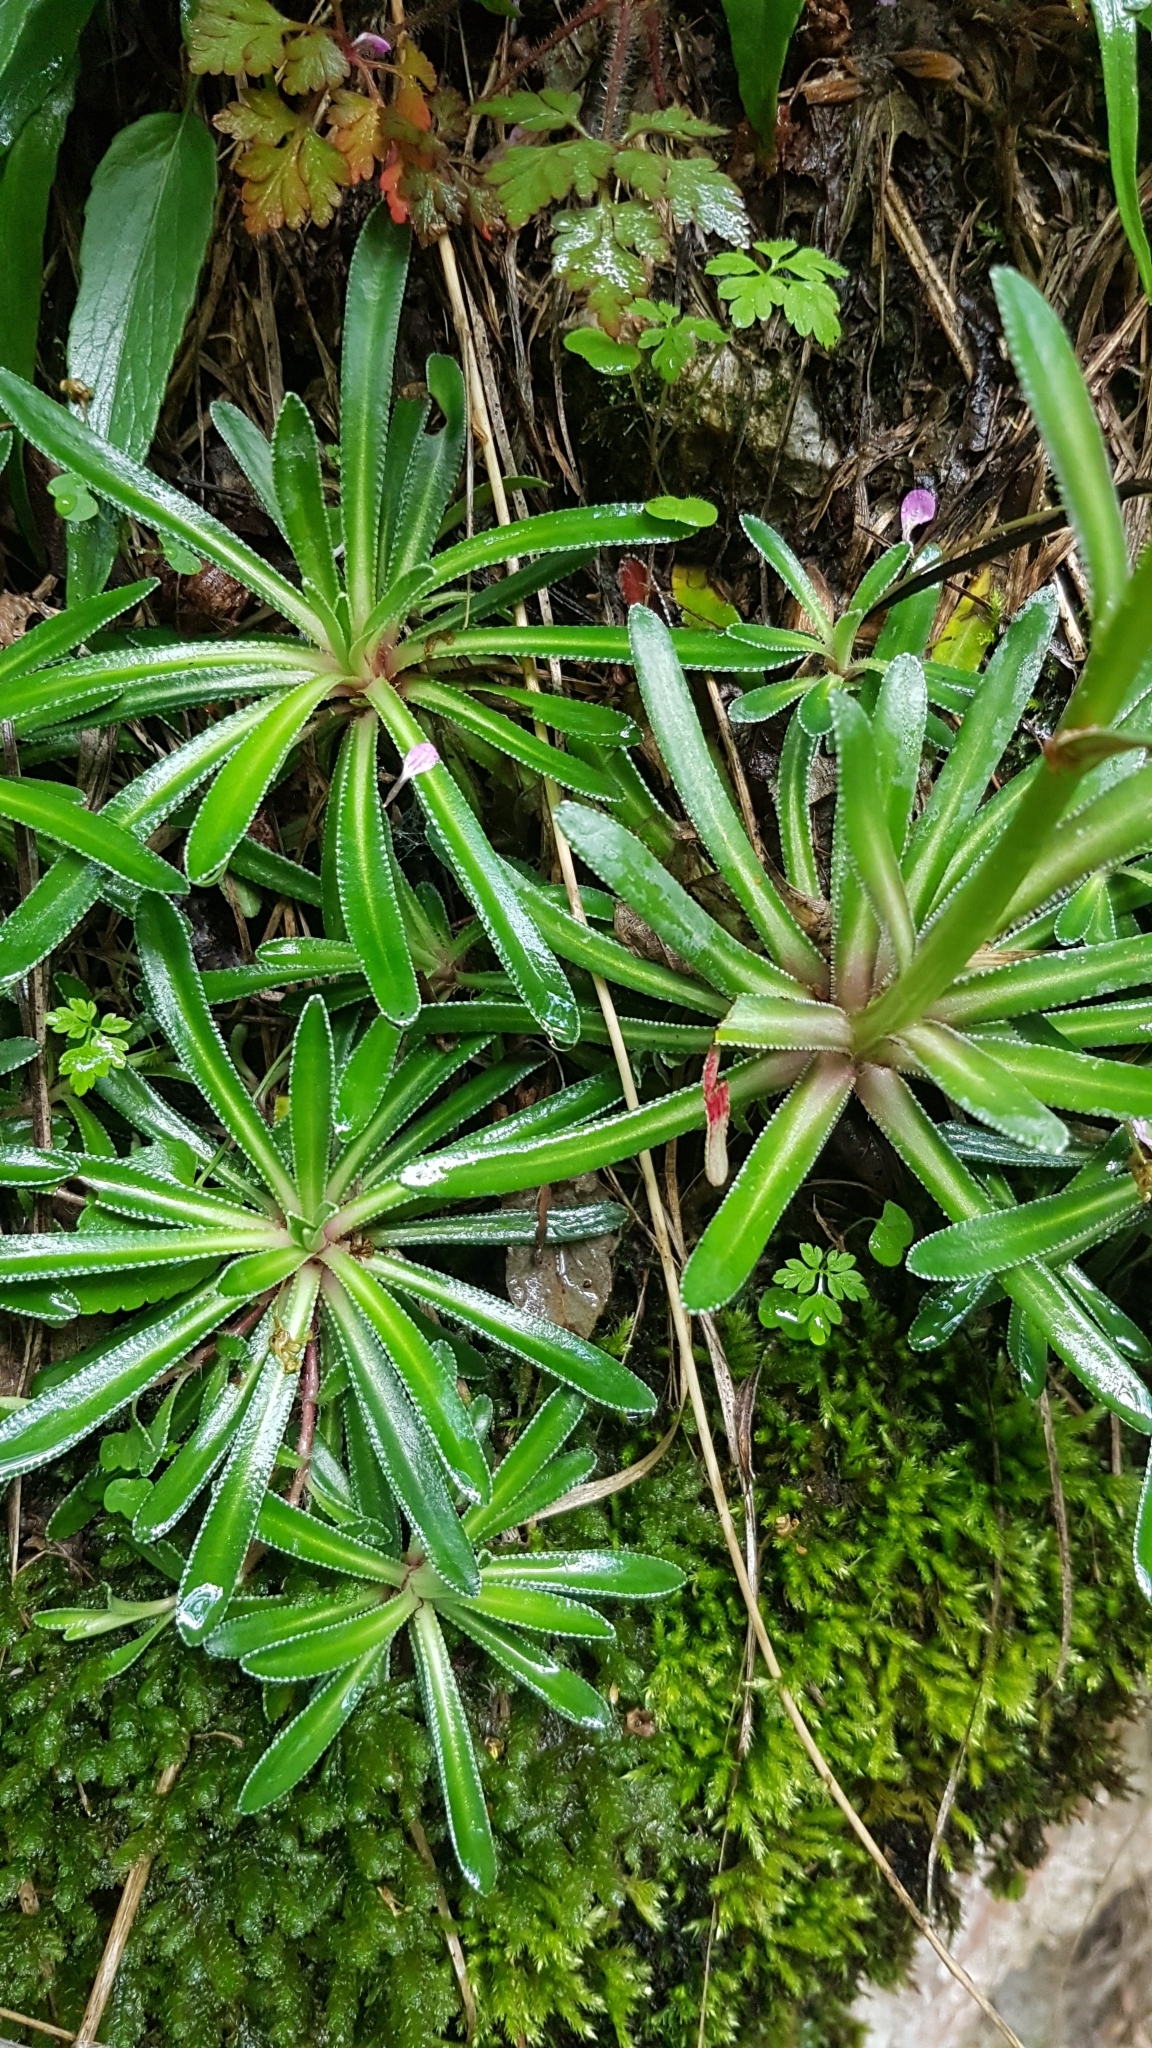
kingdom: Plantae
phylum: Tracheophyta
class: Magnoliopsida
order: Saxifragales
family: Saxifragaceae
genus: Saxifraga
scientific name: Saxifraga hostii
